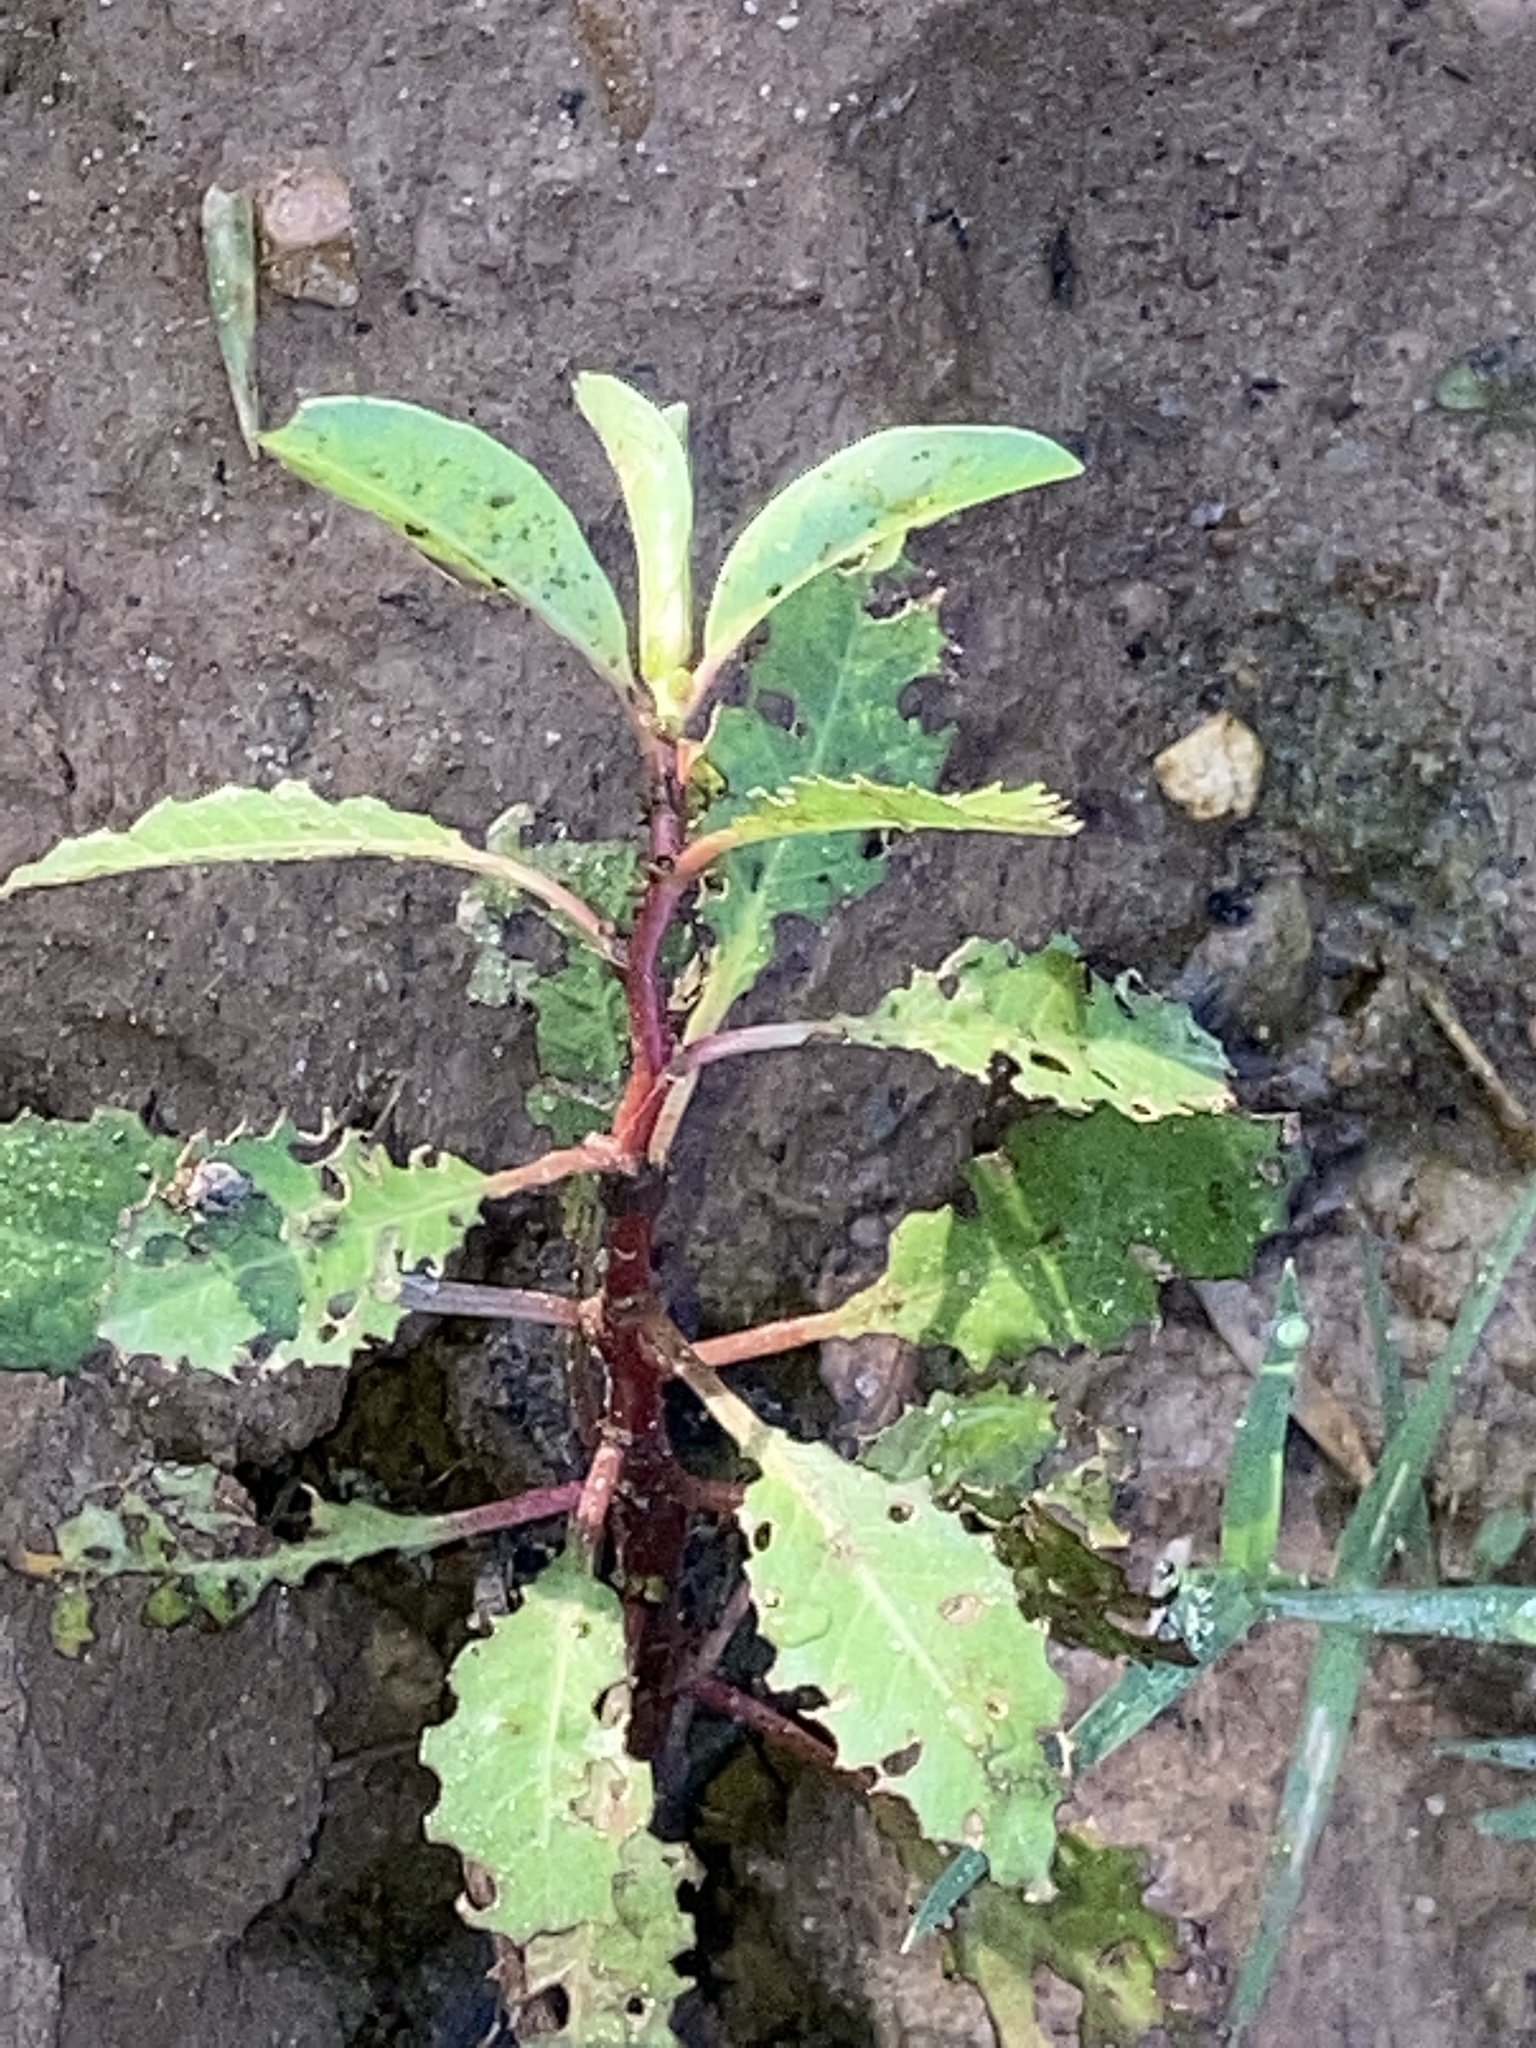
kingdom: Plantae
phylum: Tracheophyta
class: Magnoliopsida
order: Myrtales
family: Onagraceae
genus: Ludwigia
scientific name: Ludwigia peploides
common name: Floating primrose-willow
